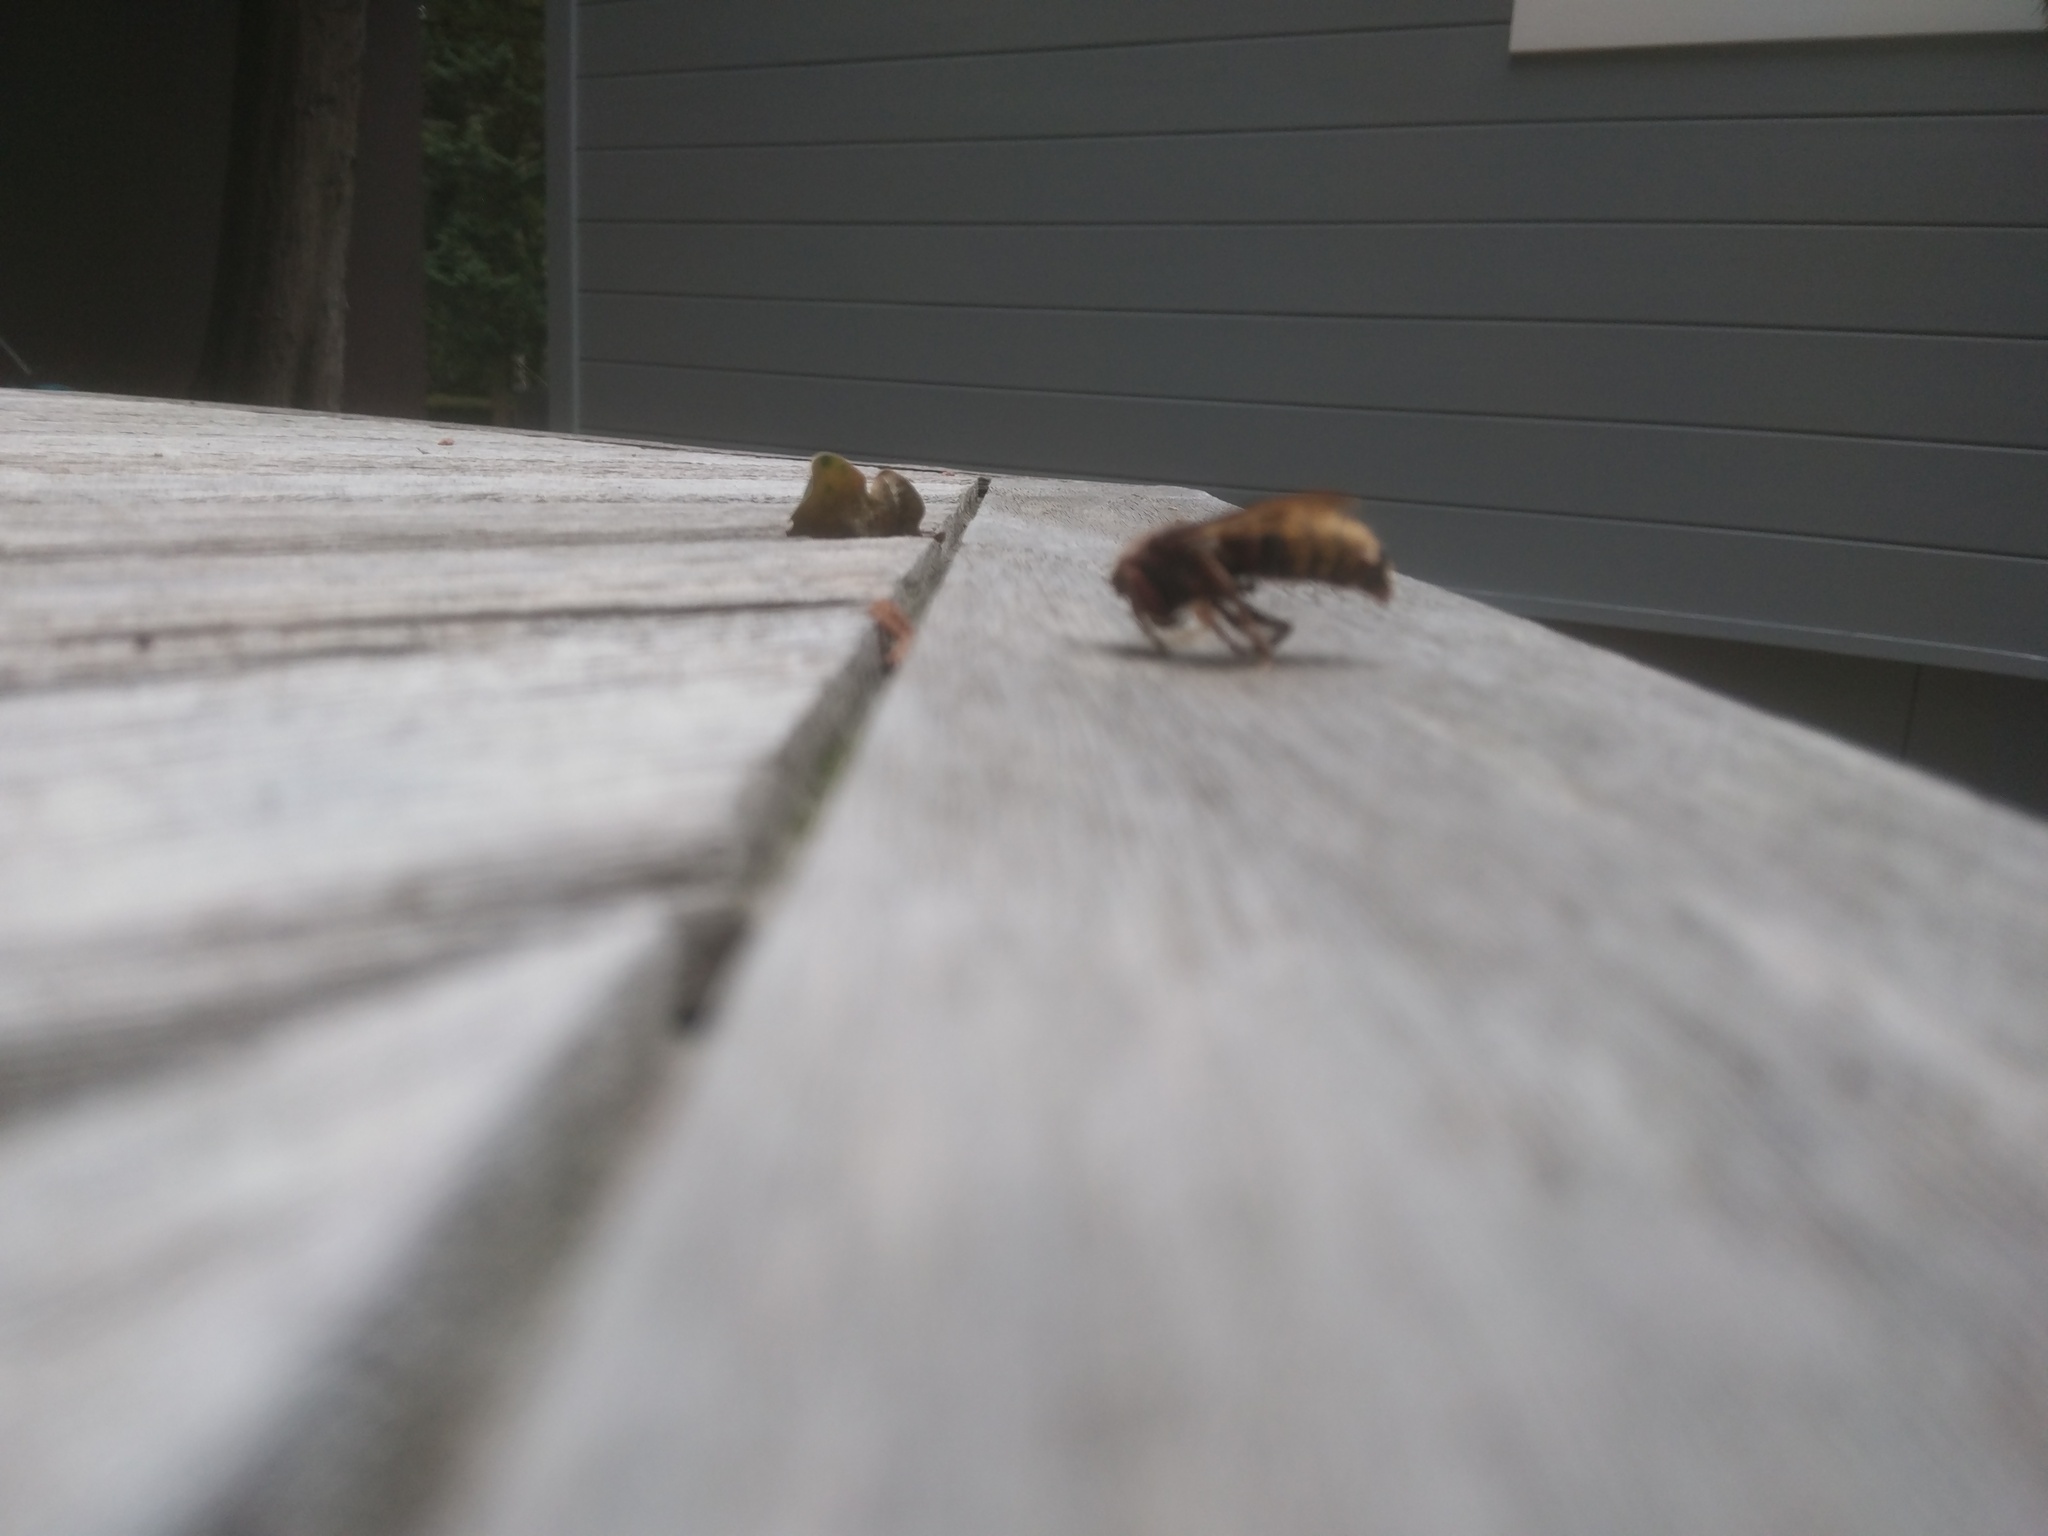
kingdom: Animalia
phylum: Arthropoda
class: Insecta
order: Hymenoptera
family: Vespidae
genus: Vespa
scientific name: Vespa crabro
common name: Hornet
